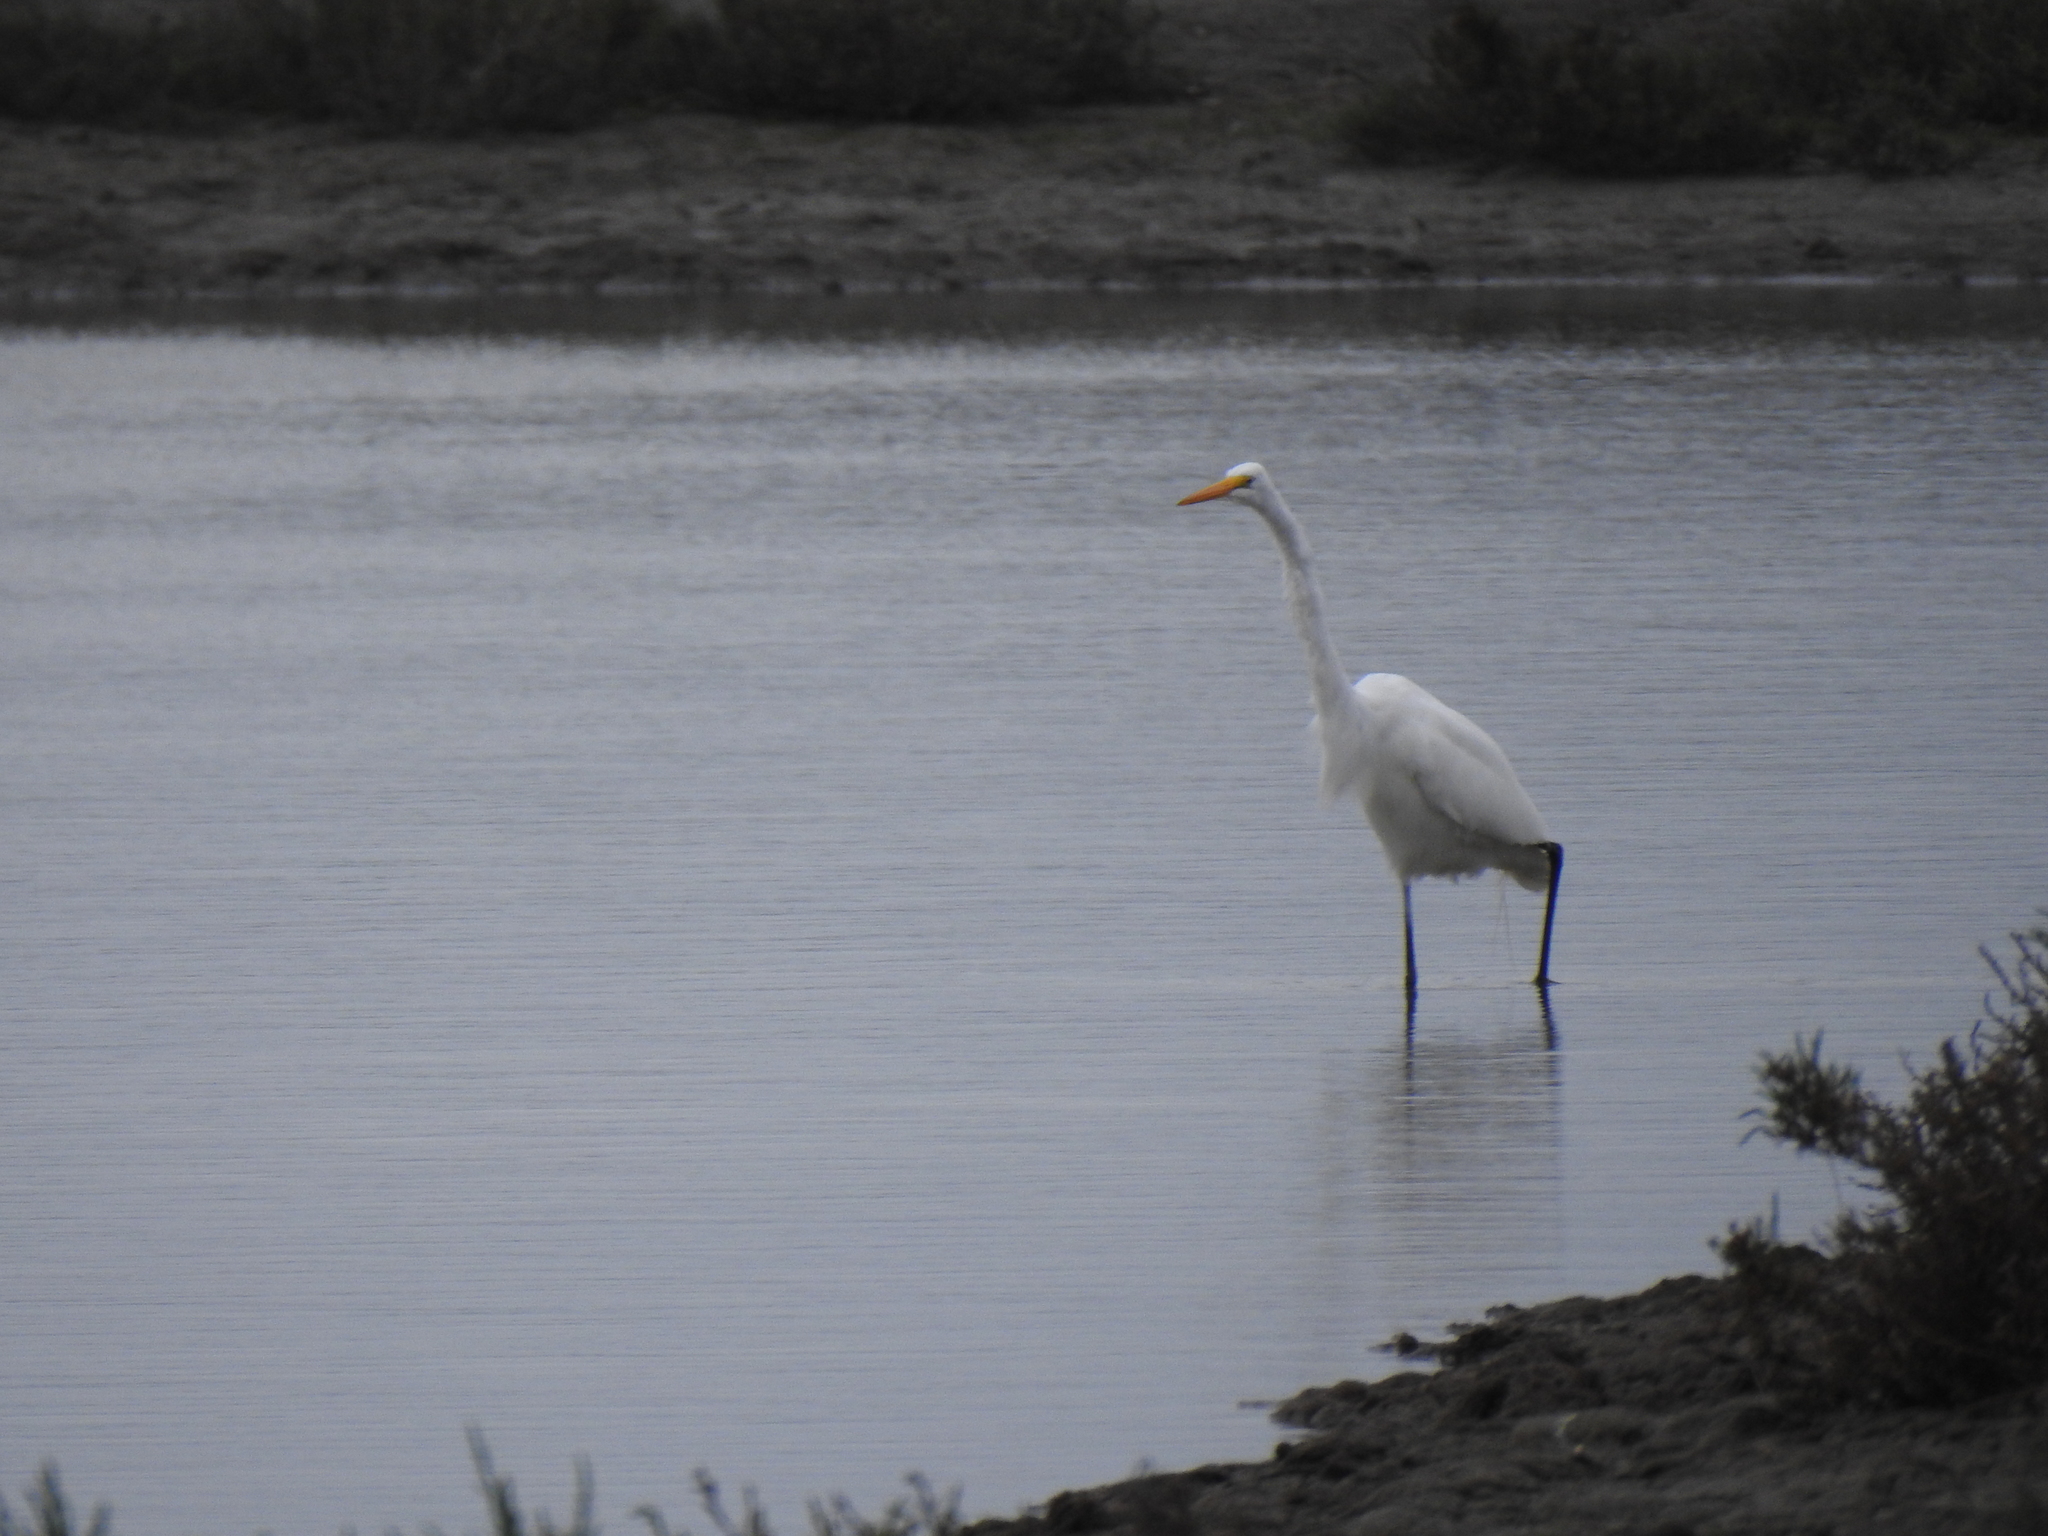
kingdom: Animalia
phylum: Chordata
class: Aves
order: Pelecaniformes
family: Ardeidae
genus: Ardea
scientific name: Ardea alba
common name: Great egret
